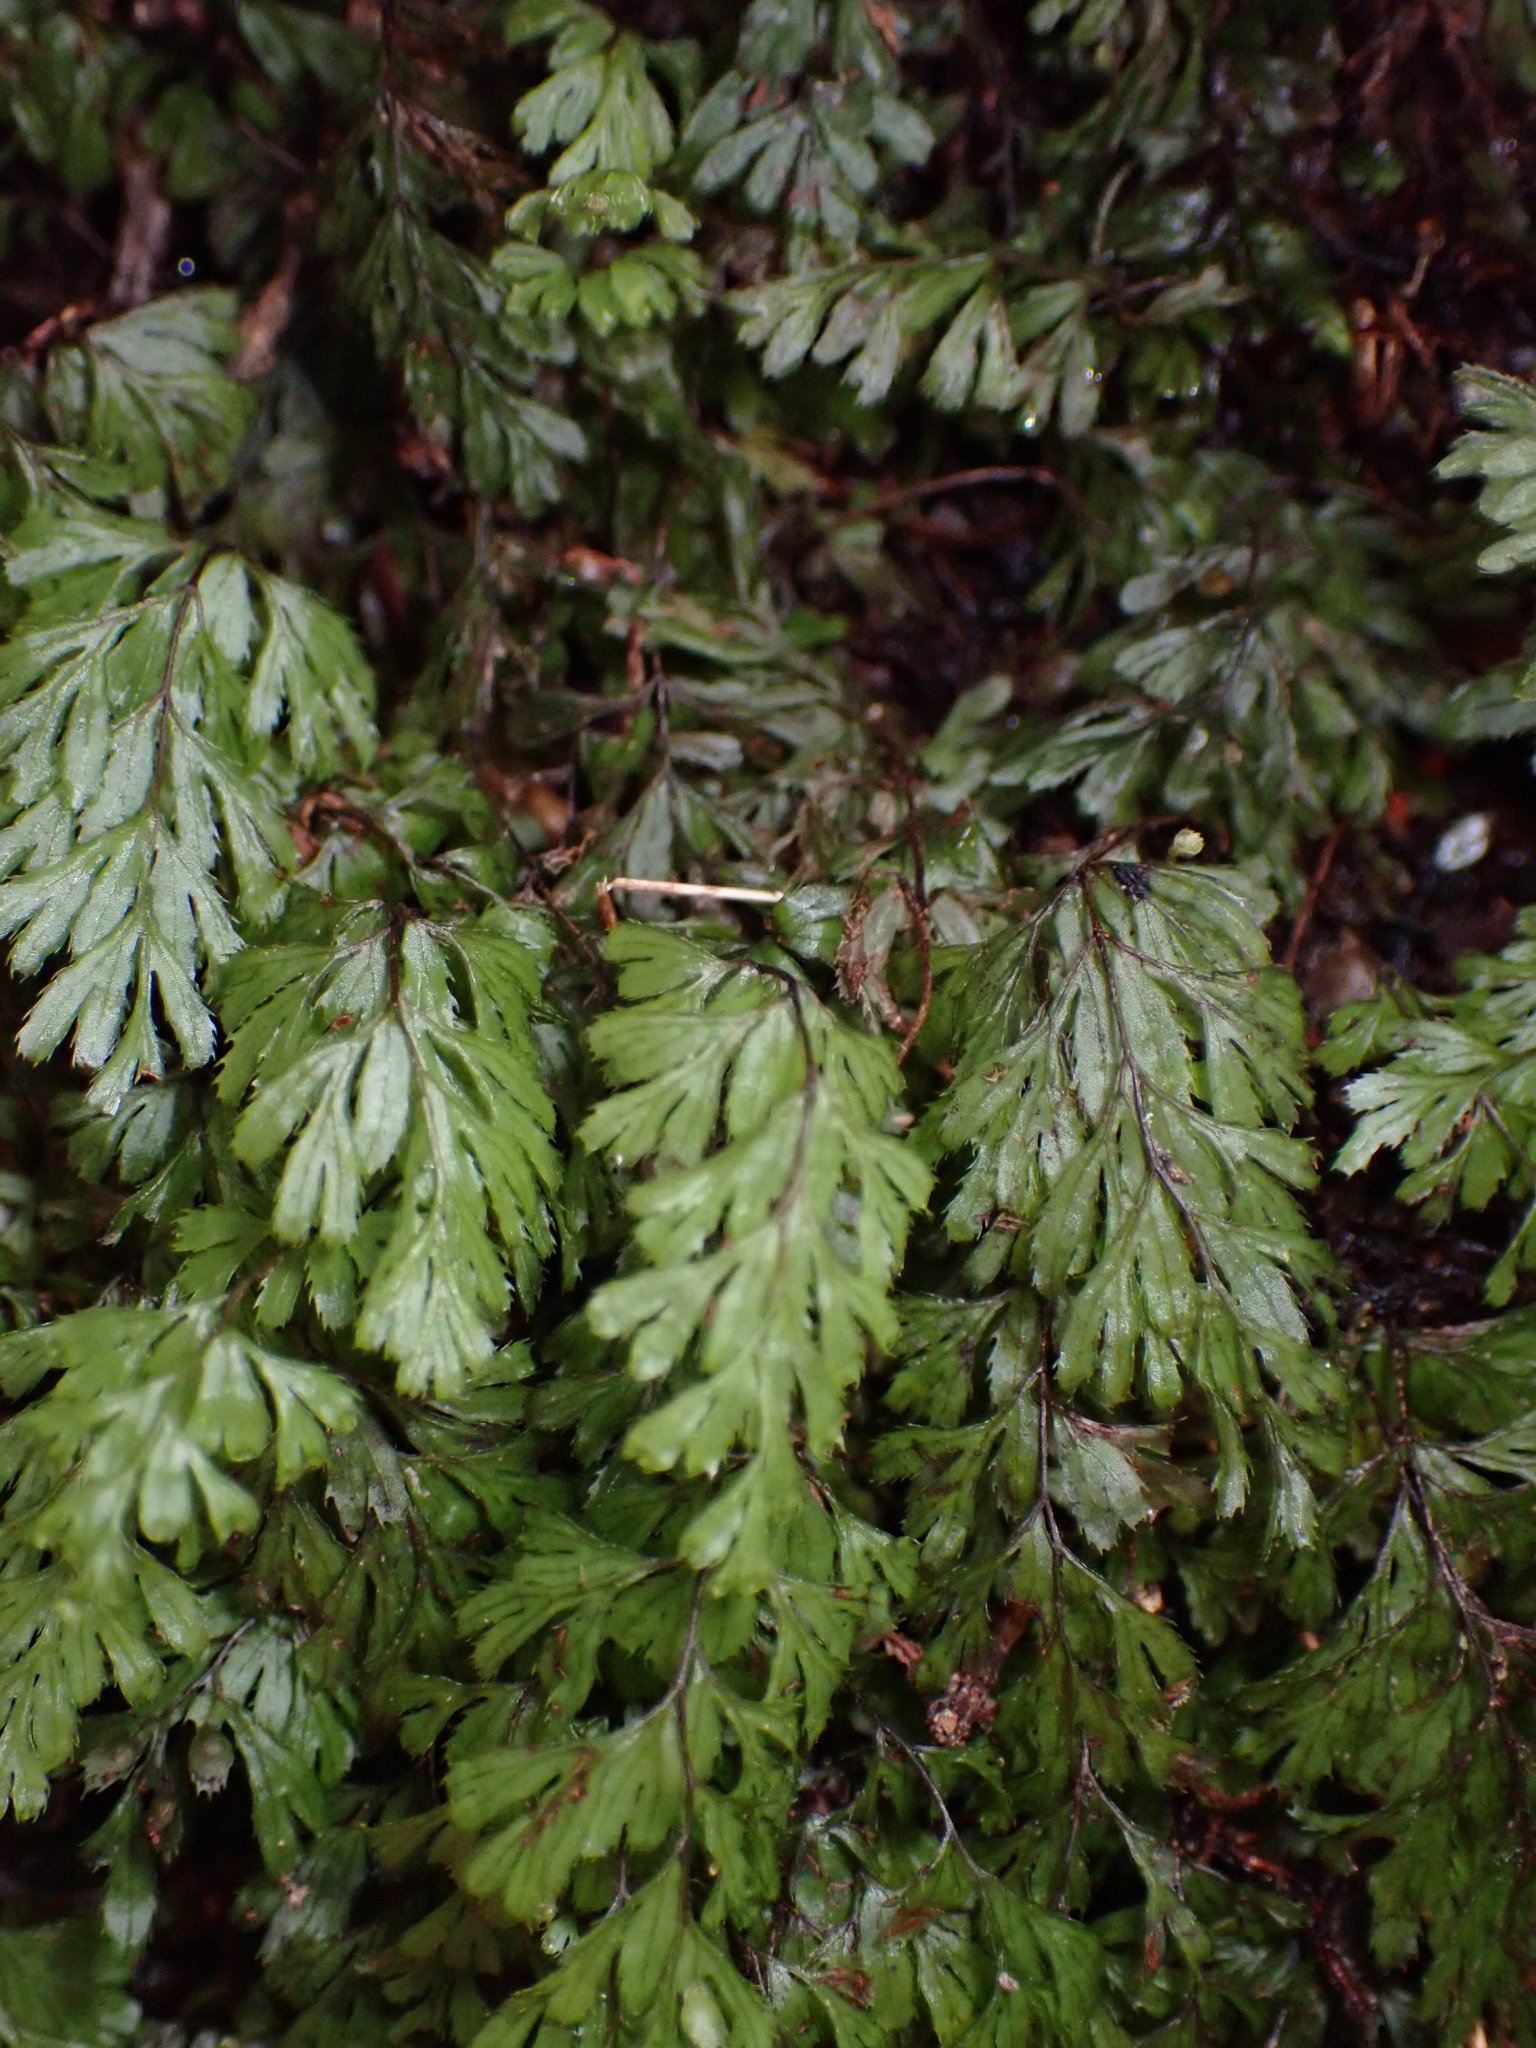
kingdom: Plantae
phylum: Tracheophyta
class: Polypodiopsida
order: Hymenophyllales
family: Hymenophyllaceae
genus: Hymenophyllum
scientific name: Hymenophyllum revolutum
